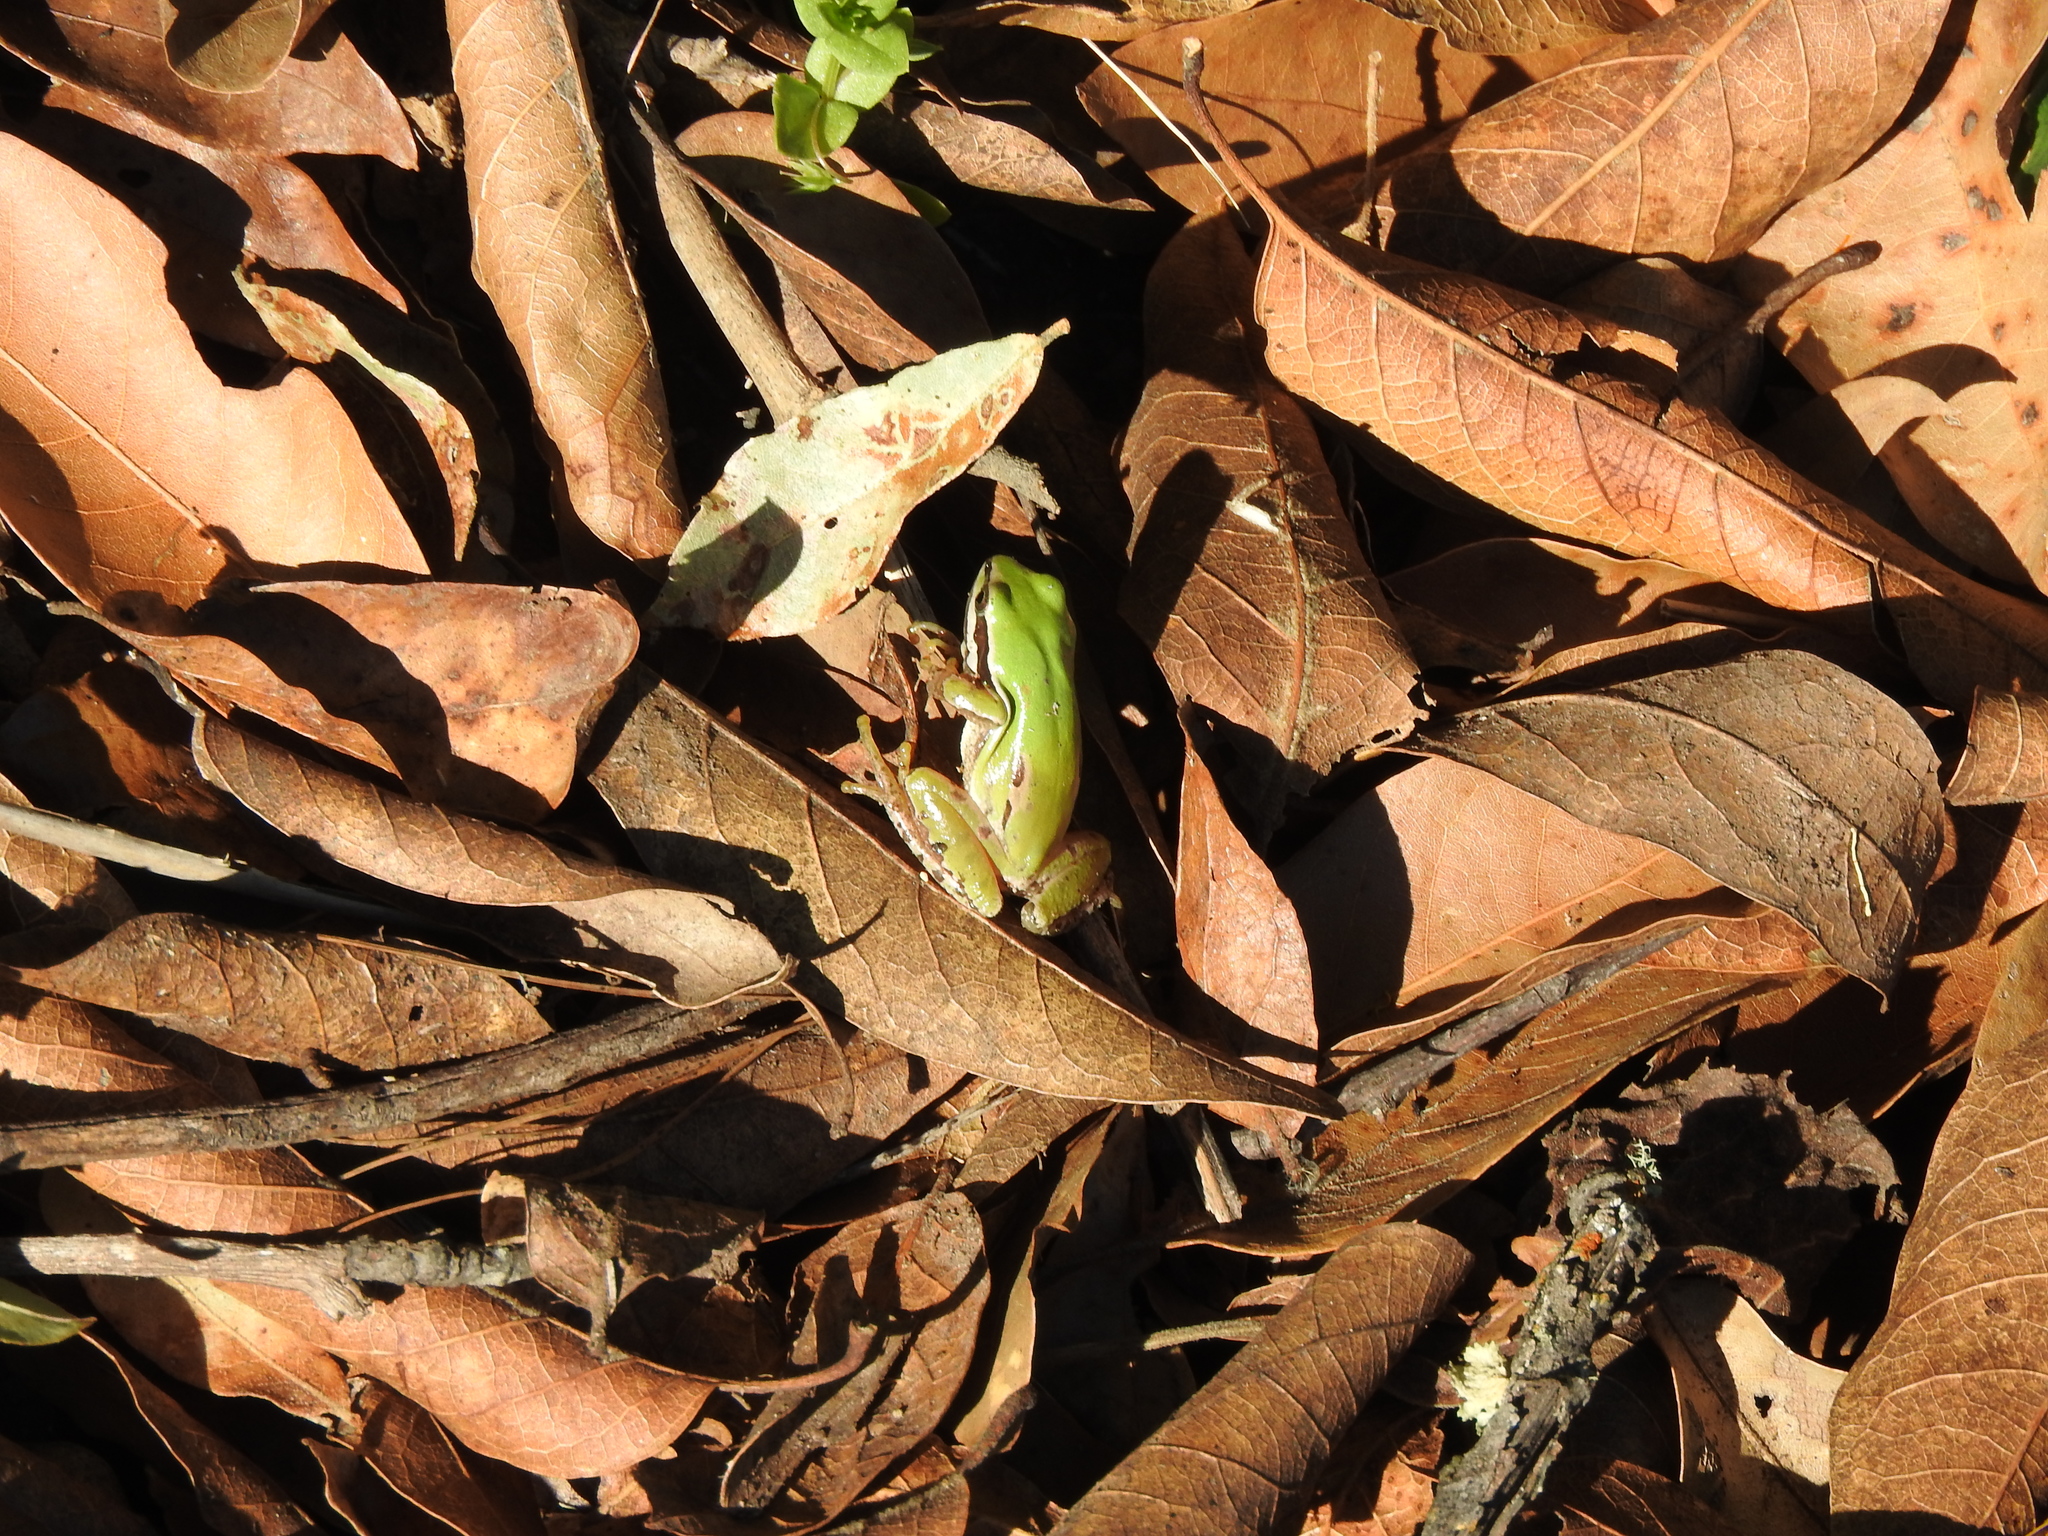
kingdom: Animalia
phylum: Chordata
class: Amphibia
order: Anura
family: Hylidae
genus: Dryophytes
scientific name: Dryophytes eximius
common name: Mountain treefrog
